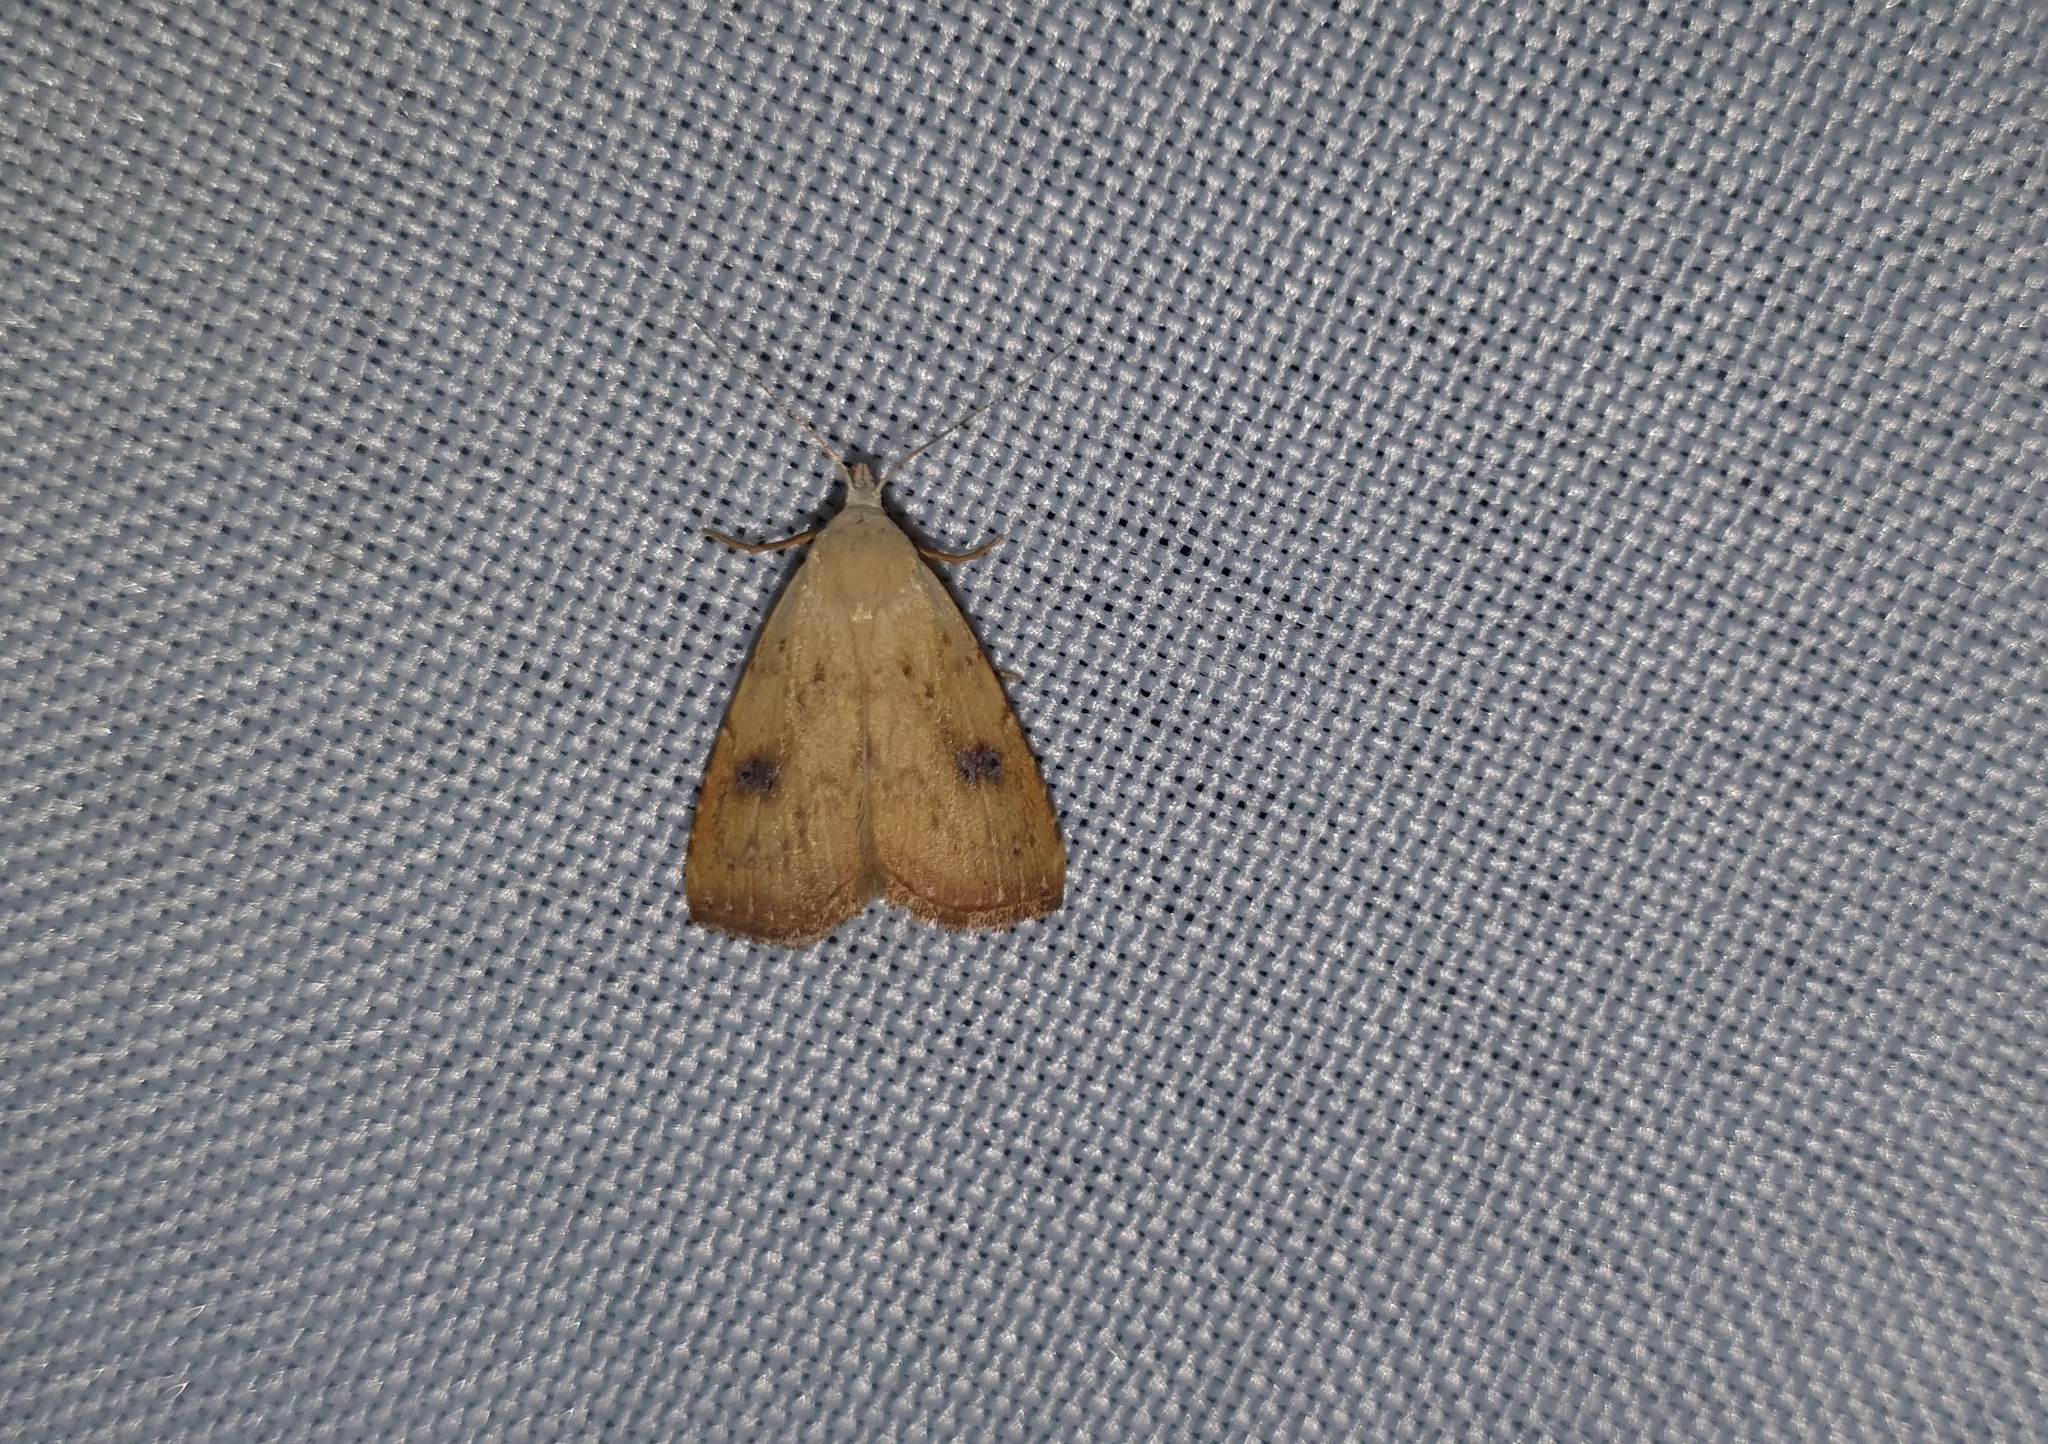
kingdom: Animalia
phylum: Arthropoda
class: Insecta
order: Lepidoptera
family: Erebidae
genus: Rivula
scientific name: Rivula sericealis
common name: Straw dot
